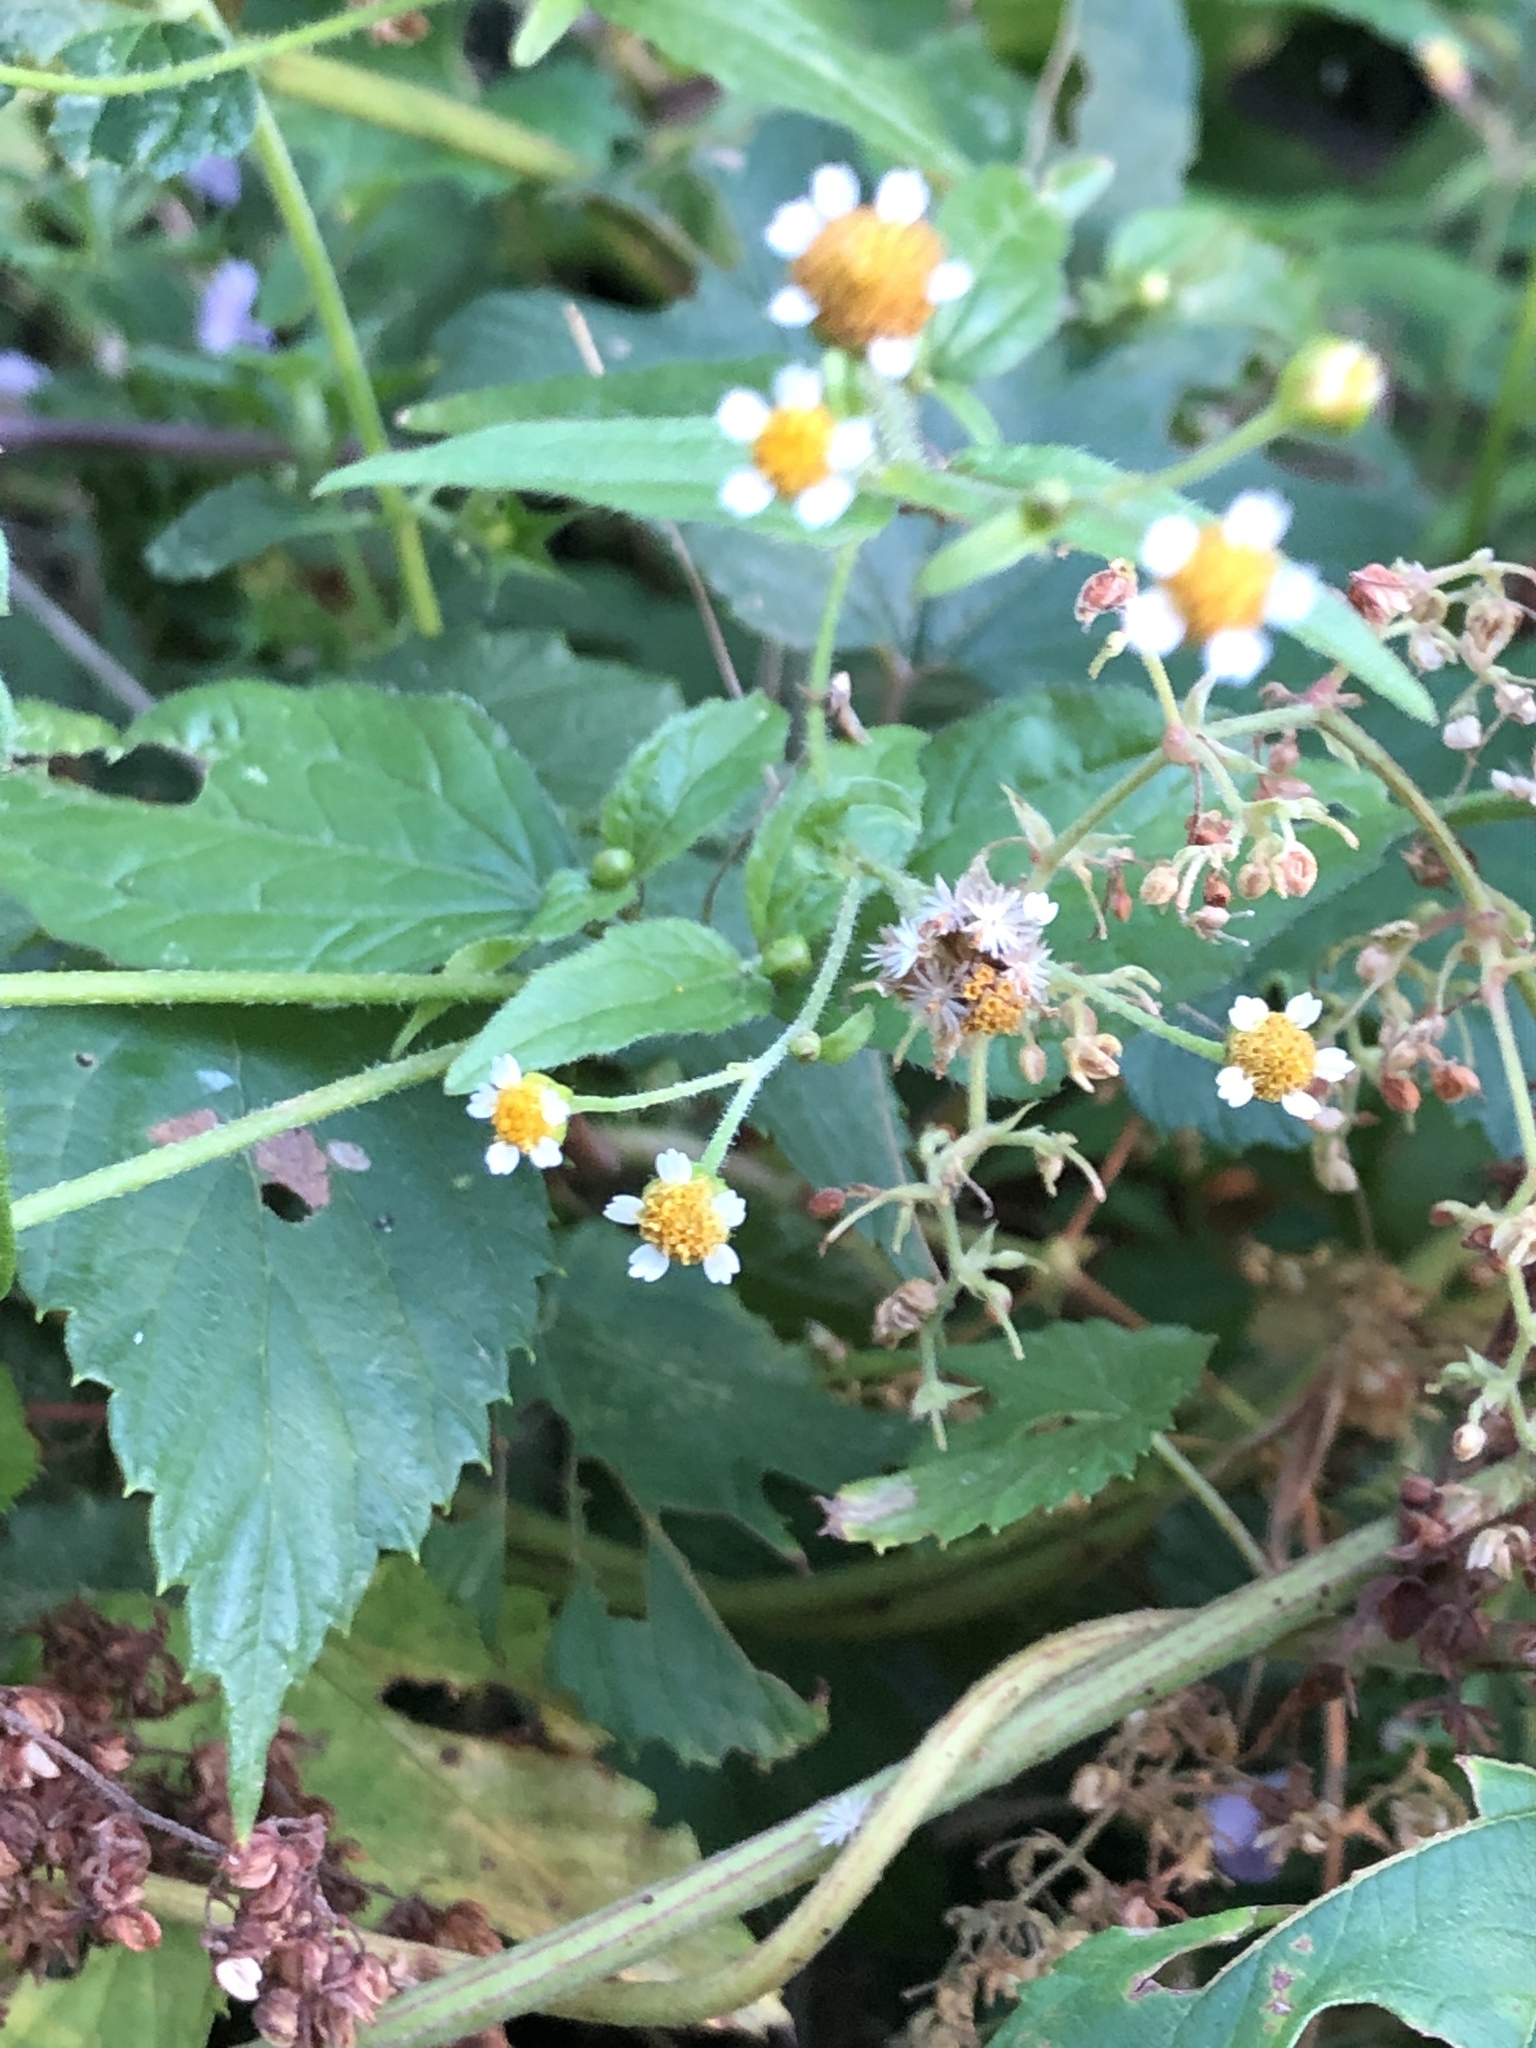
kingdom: Plantae
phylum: Tracheophyta
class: Magnoliopsida
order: Asterales
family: Asteraceae
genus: Galinsoga
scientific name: Galinsoga quadriradiata
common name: Shaggy soldier
